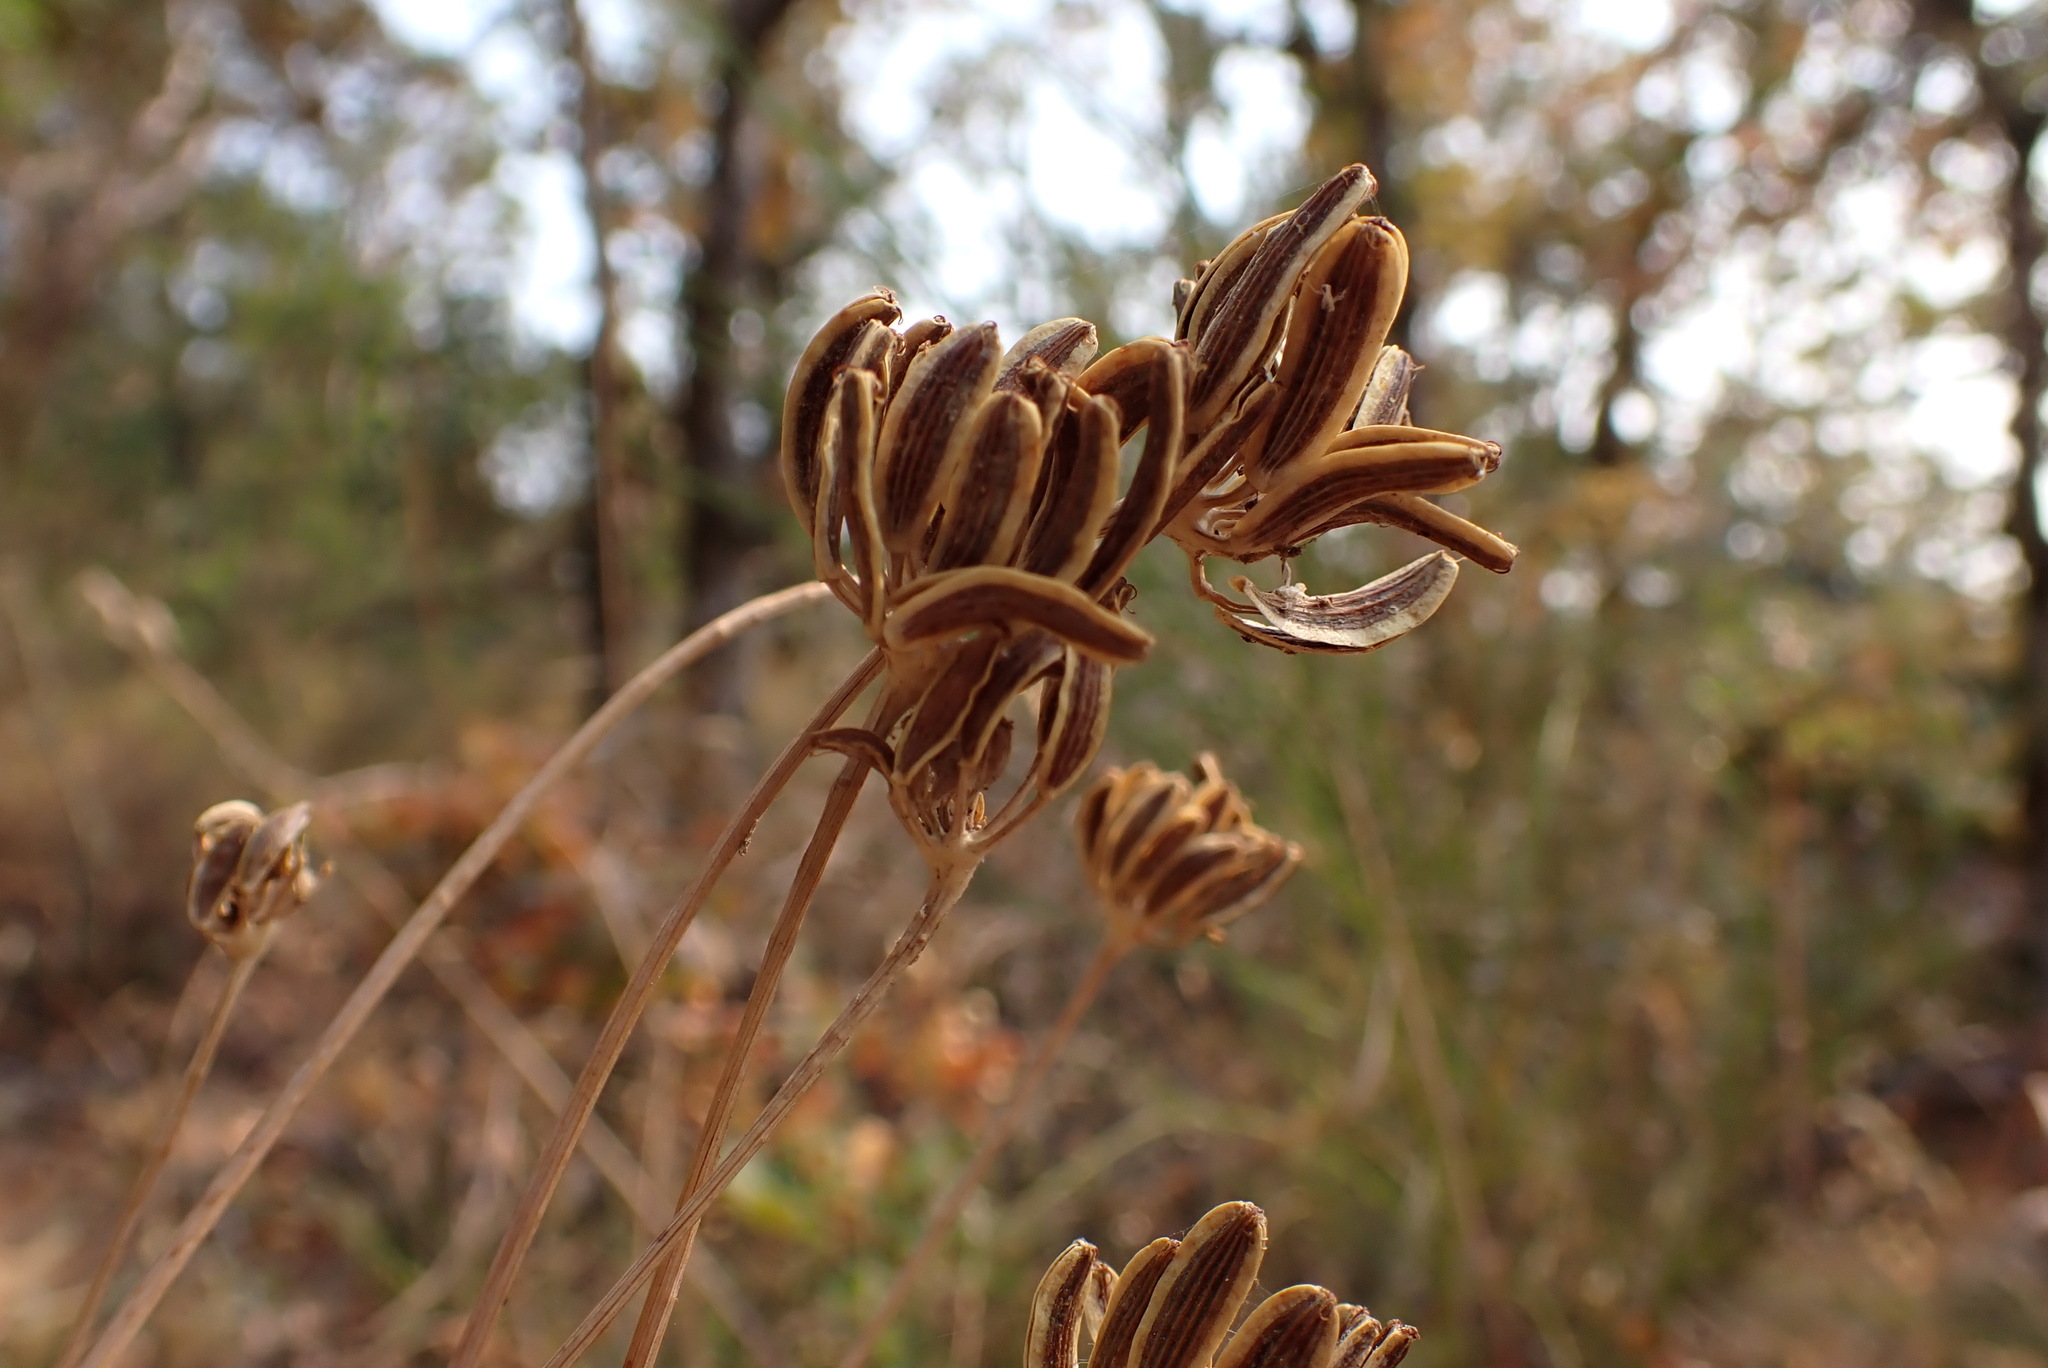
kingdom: Plantae
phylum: Tracheophyta
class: Magnoliopsida
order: Apiales
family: Apiaceae
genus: Lomatium
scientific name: Lomatium nudicaule
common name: Pestle lomatium
